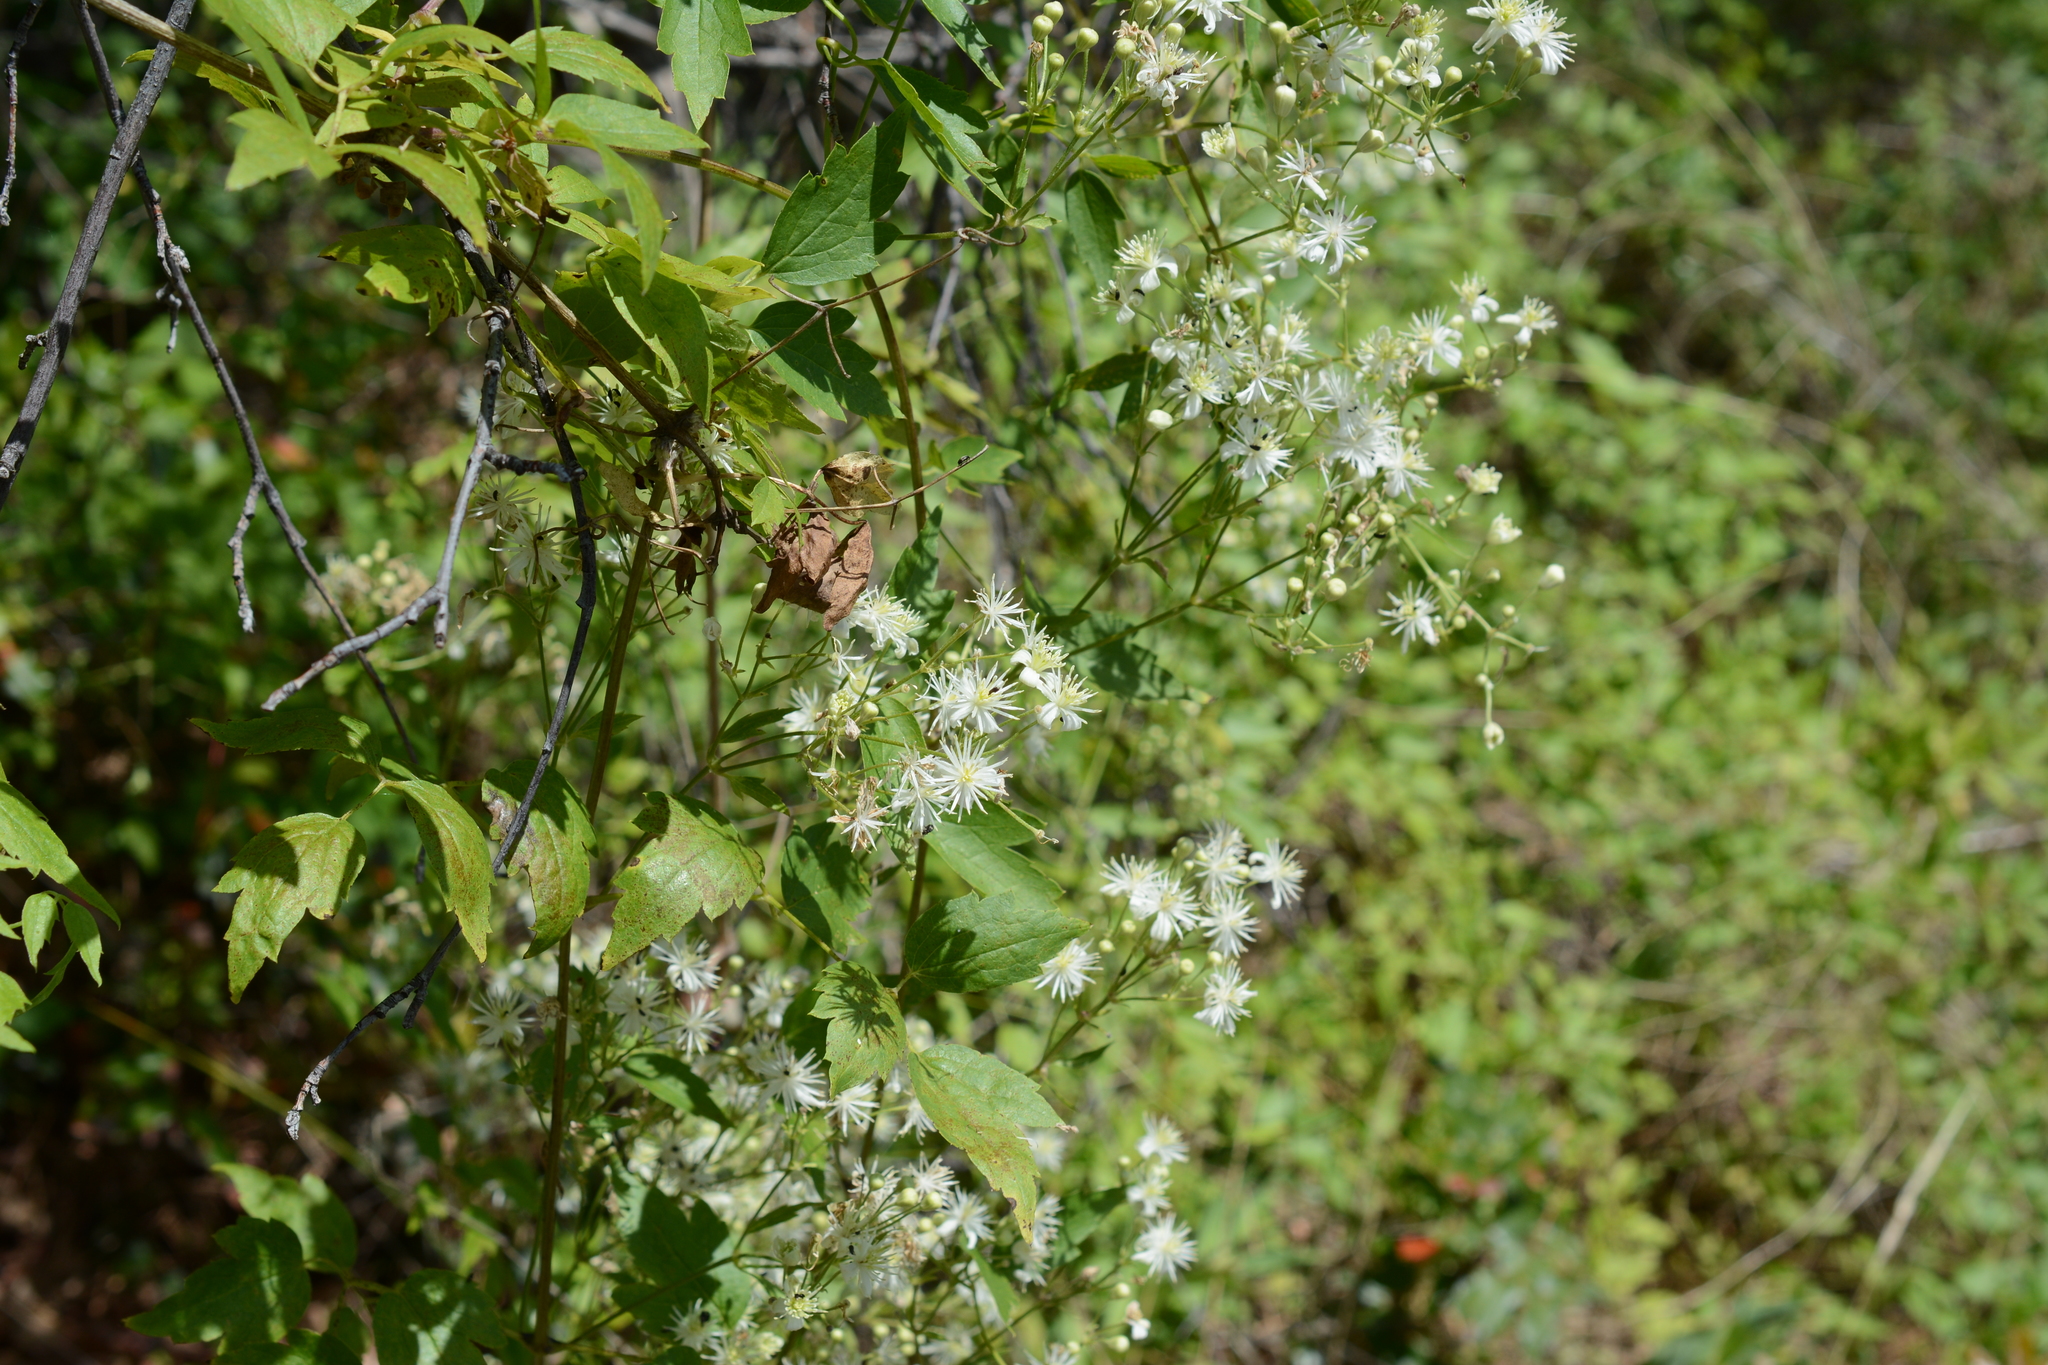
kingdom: Plantae
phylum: Tracheophyta
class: Magnoliopsida
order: Ranunculales
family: Ranunculaceae
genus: Clematis
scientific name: Clematis ligusticifolia
